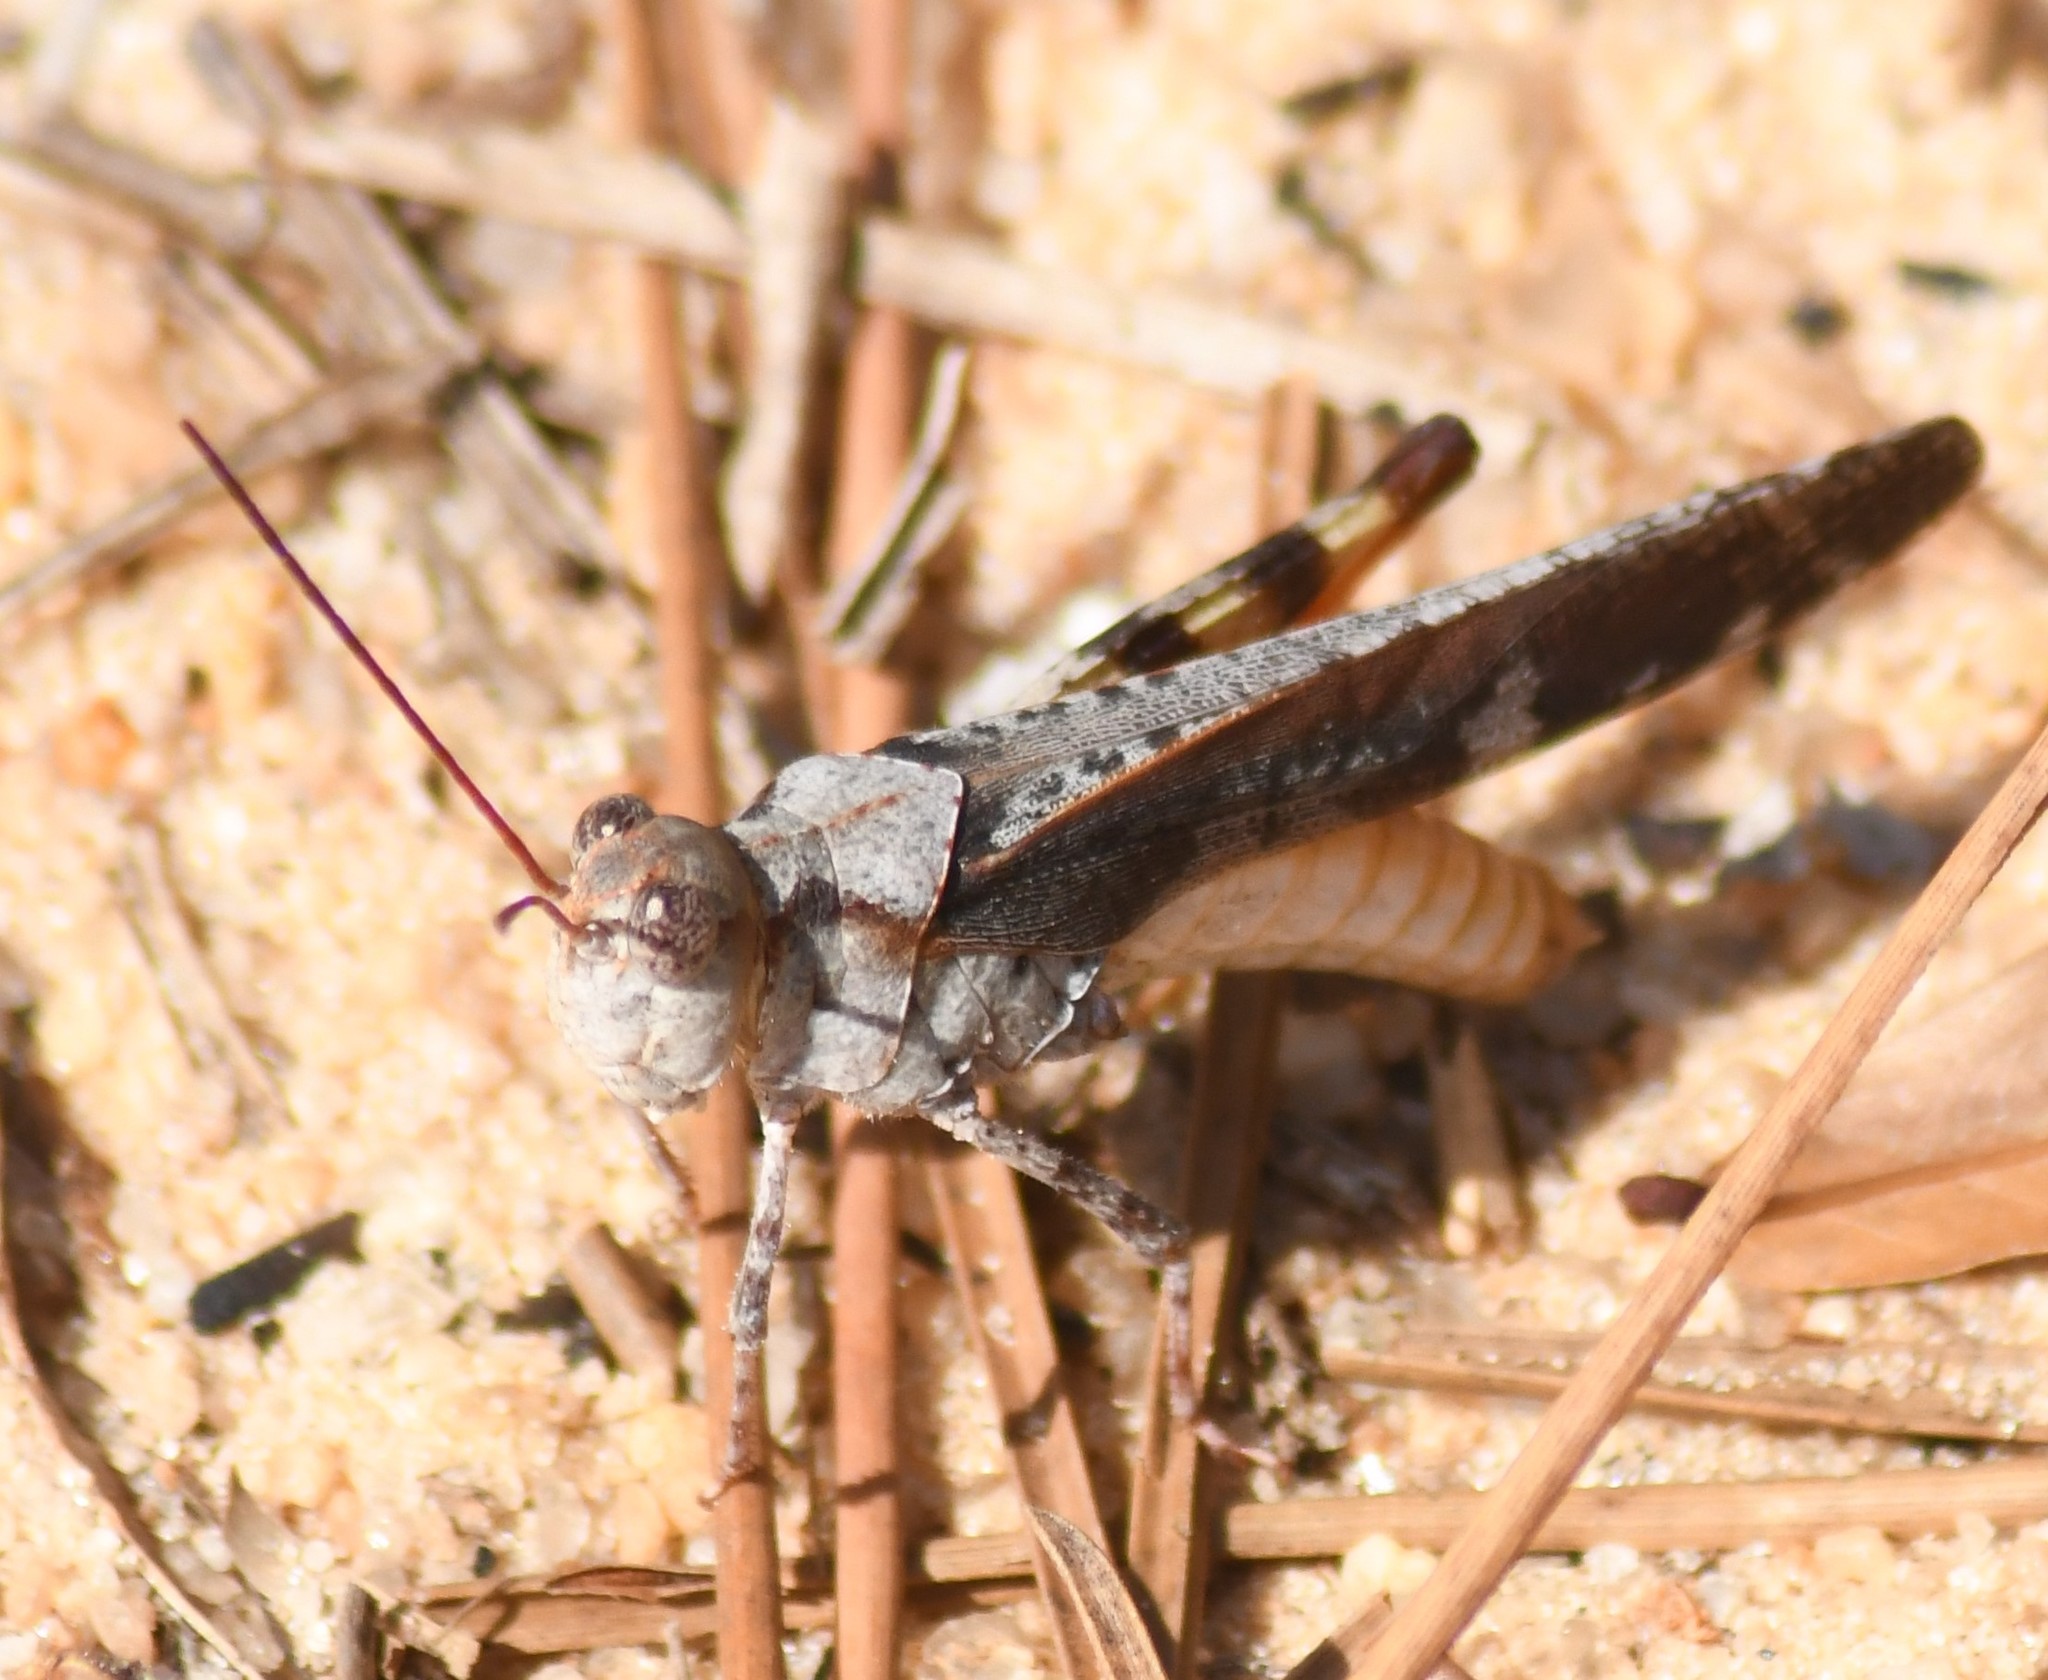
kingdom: Animalia
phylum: Arthropoda
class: Insecta
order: Orthoptera
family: Acrididae
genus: Spharagemon
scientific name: Spharagemon marmoratum
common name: Marbled grasshopper
